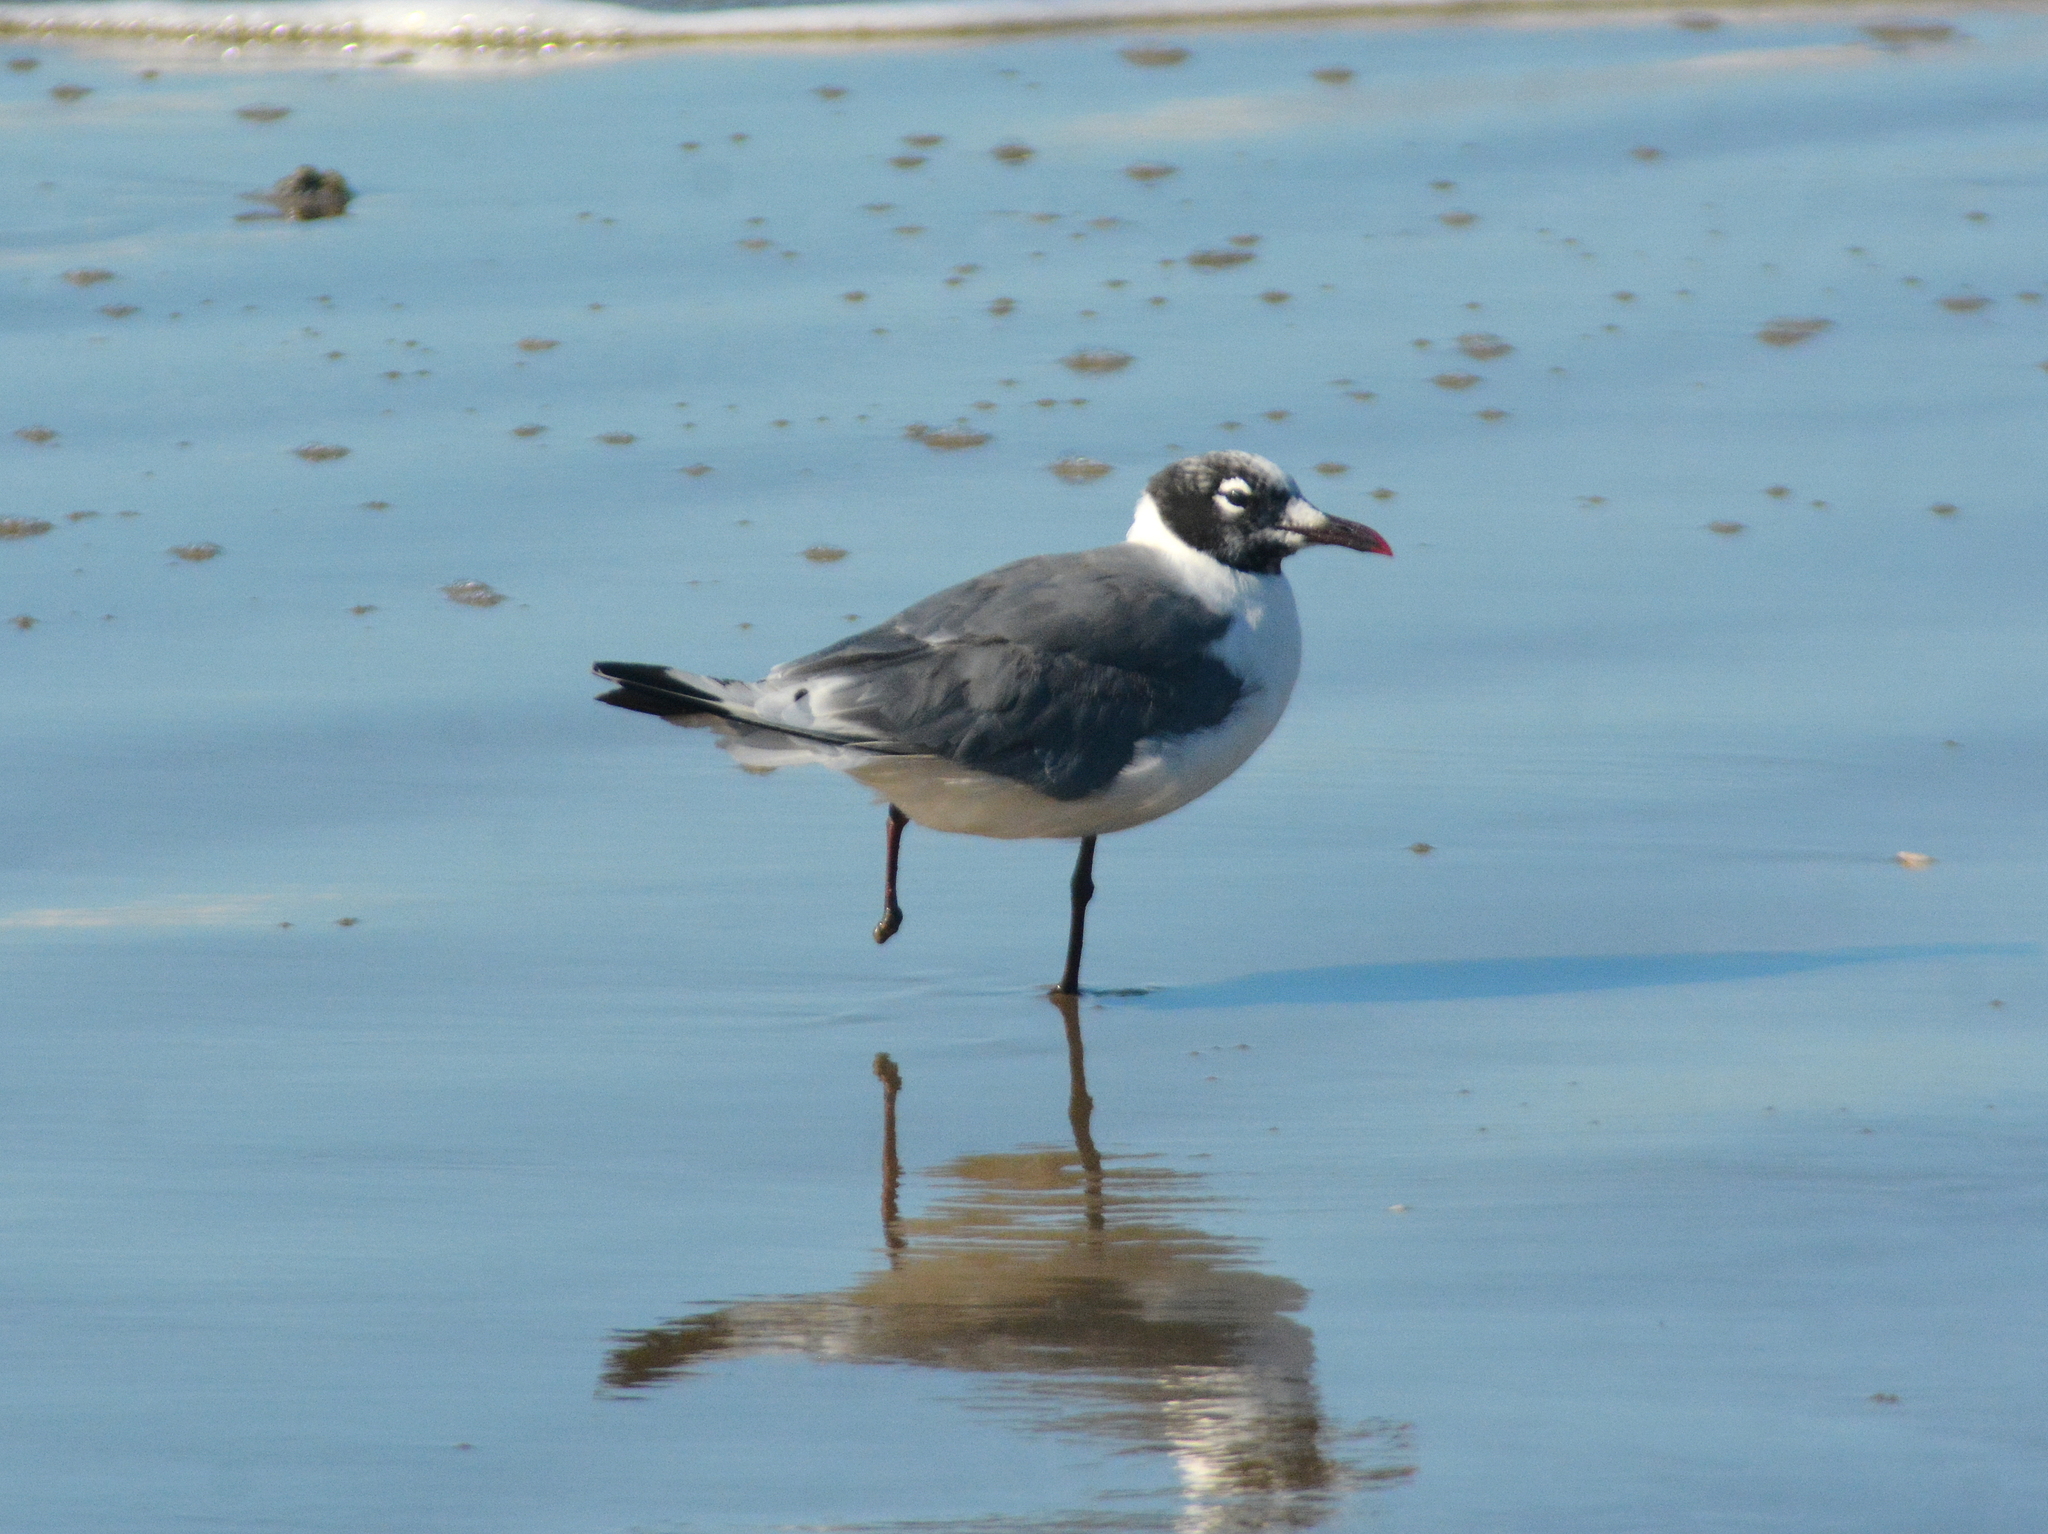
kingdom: Animalia
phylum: Chordata
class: Aves
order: Charadriiformes
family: Laridae
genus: Leucophaeus
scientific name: Leucophaeus pipixcan
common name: Franklin's gull
